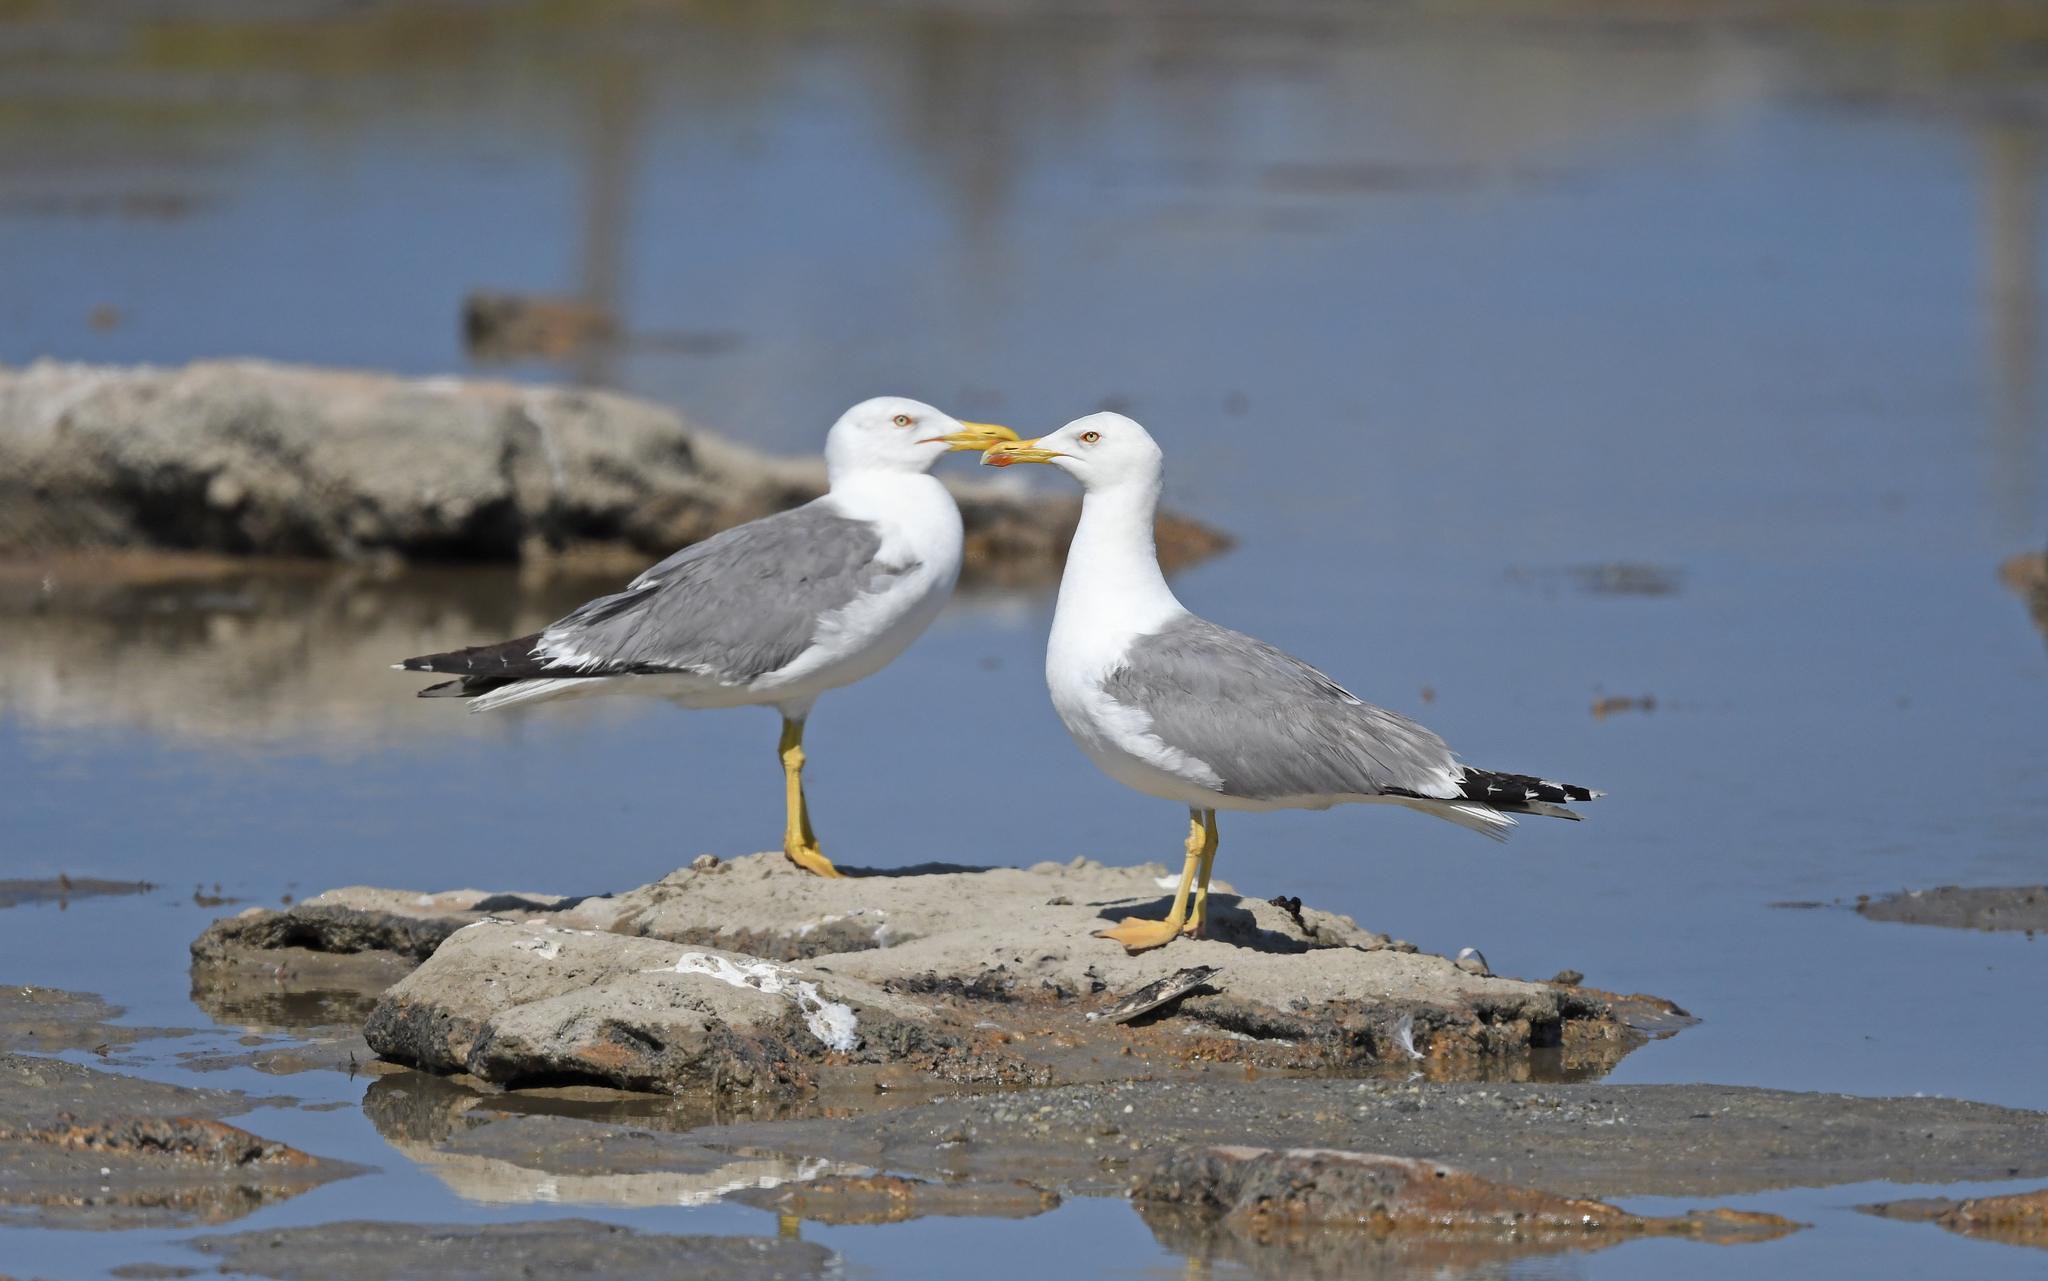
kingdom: Animalia
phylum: Chordata
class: Aves
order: Charadriiformes
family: Laridae
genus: Larus
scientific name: Larus michahellis
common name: Yellow-legged gull
